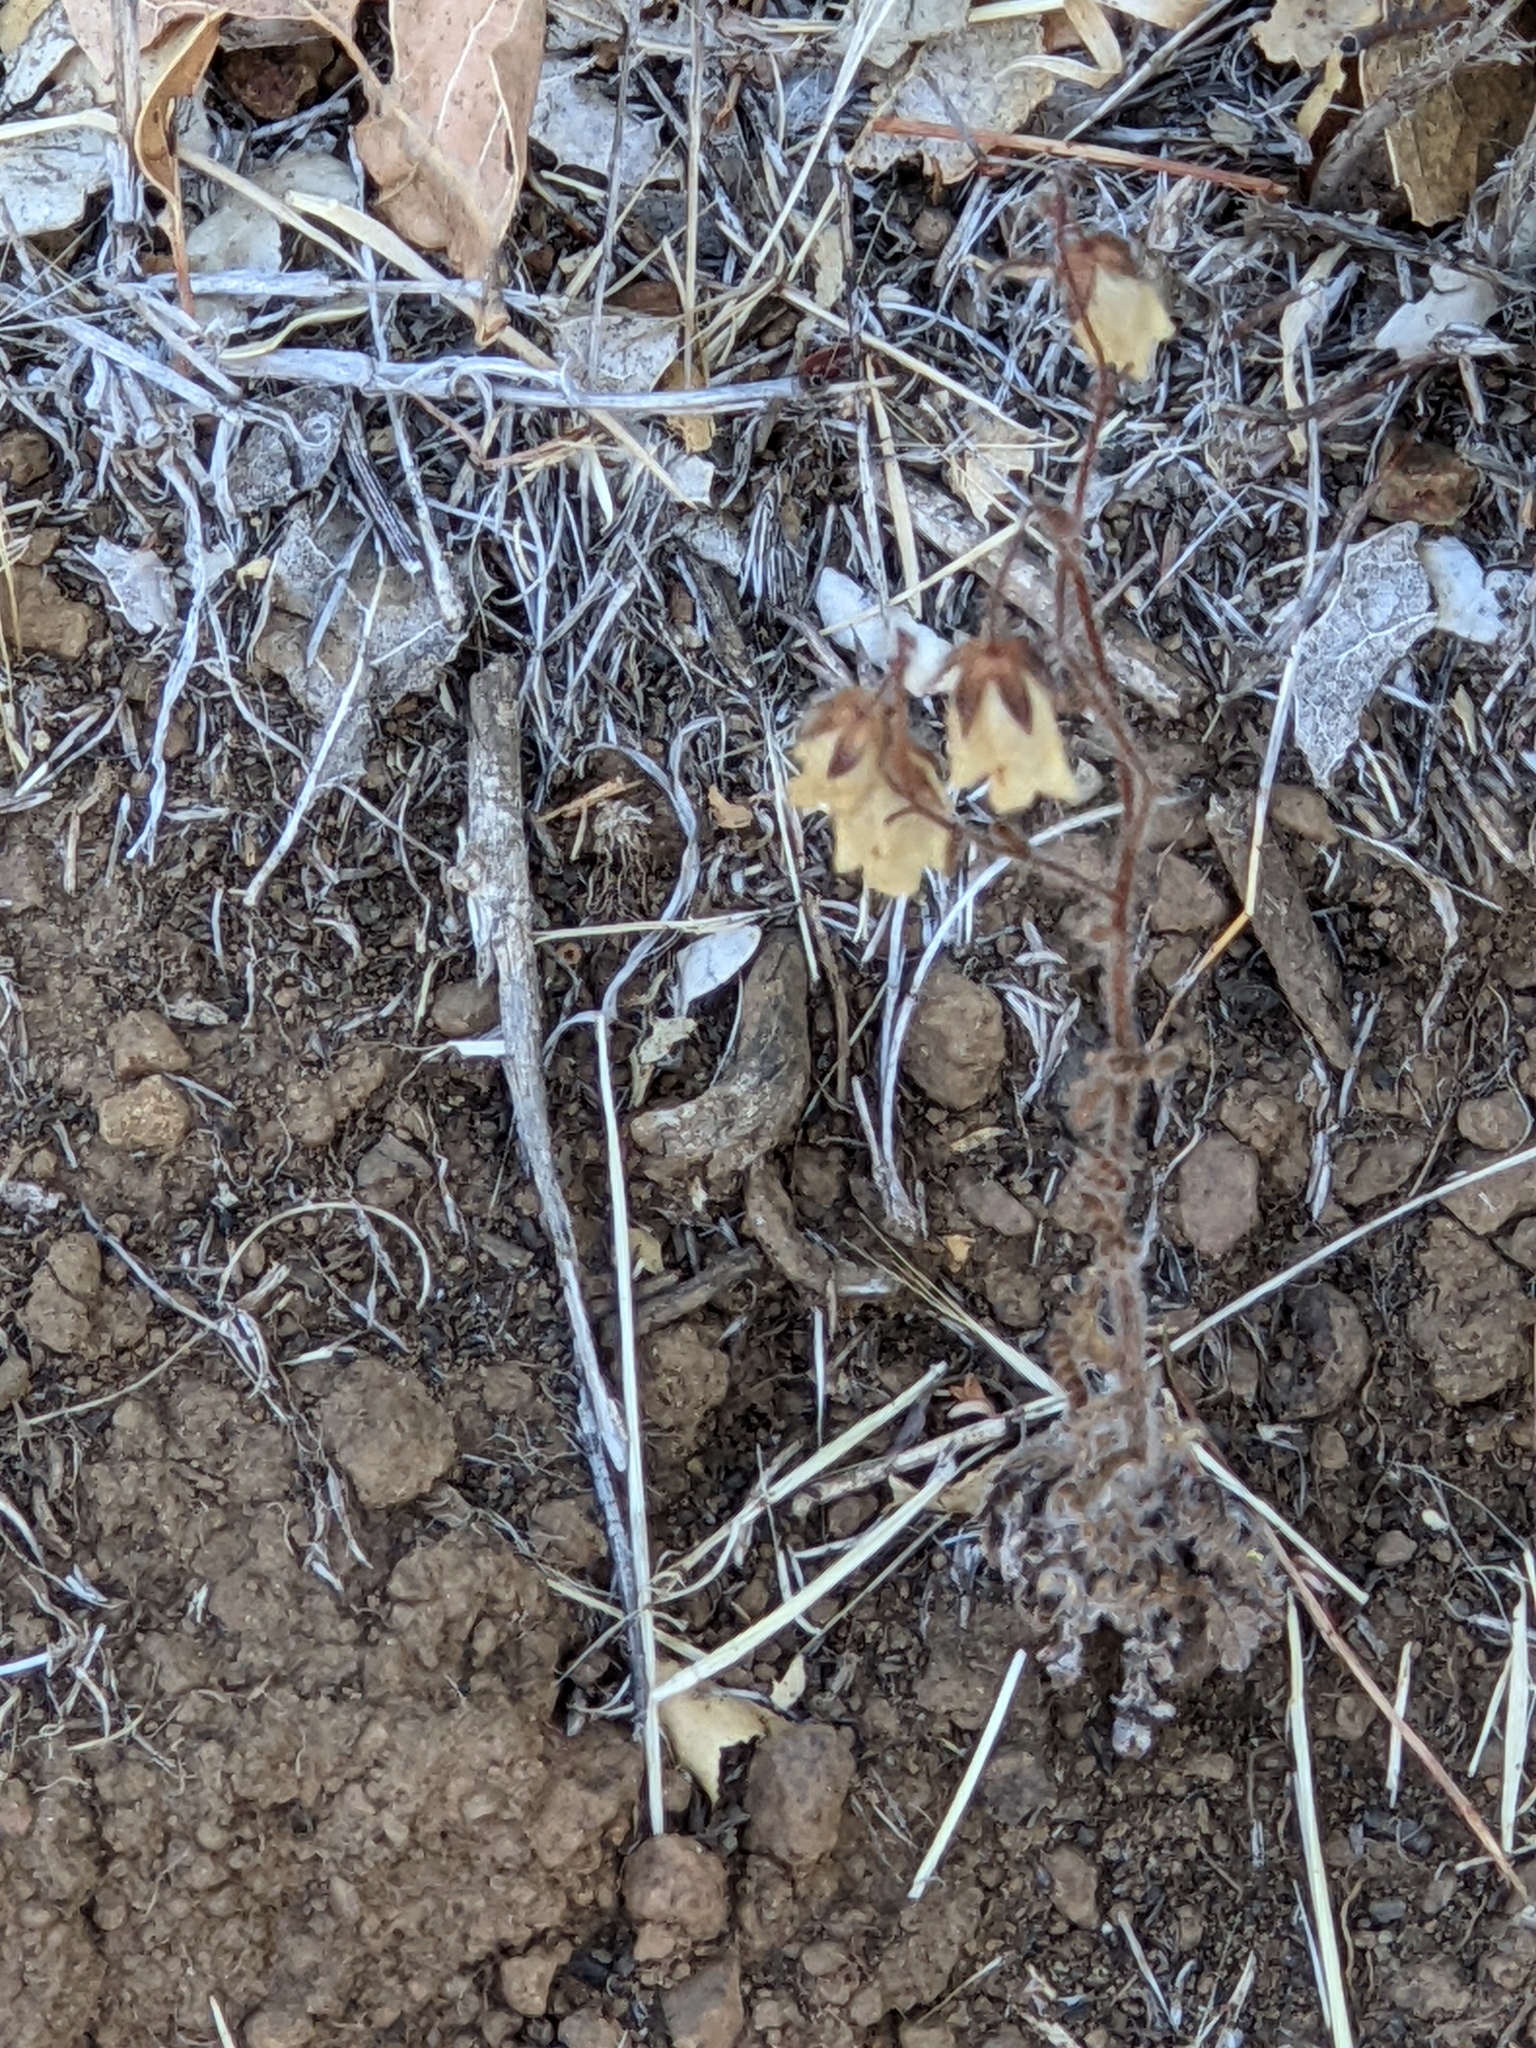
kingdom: Plantae
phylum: Tracheophyta
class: Magnoliopsida
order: Boraginales
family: Hydrophyllaceae
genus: Emmenanthe
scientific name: Emmenanthe penduliflora
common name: Whispering-bells
